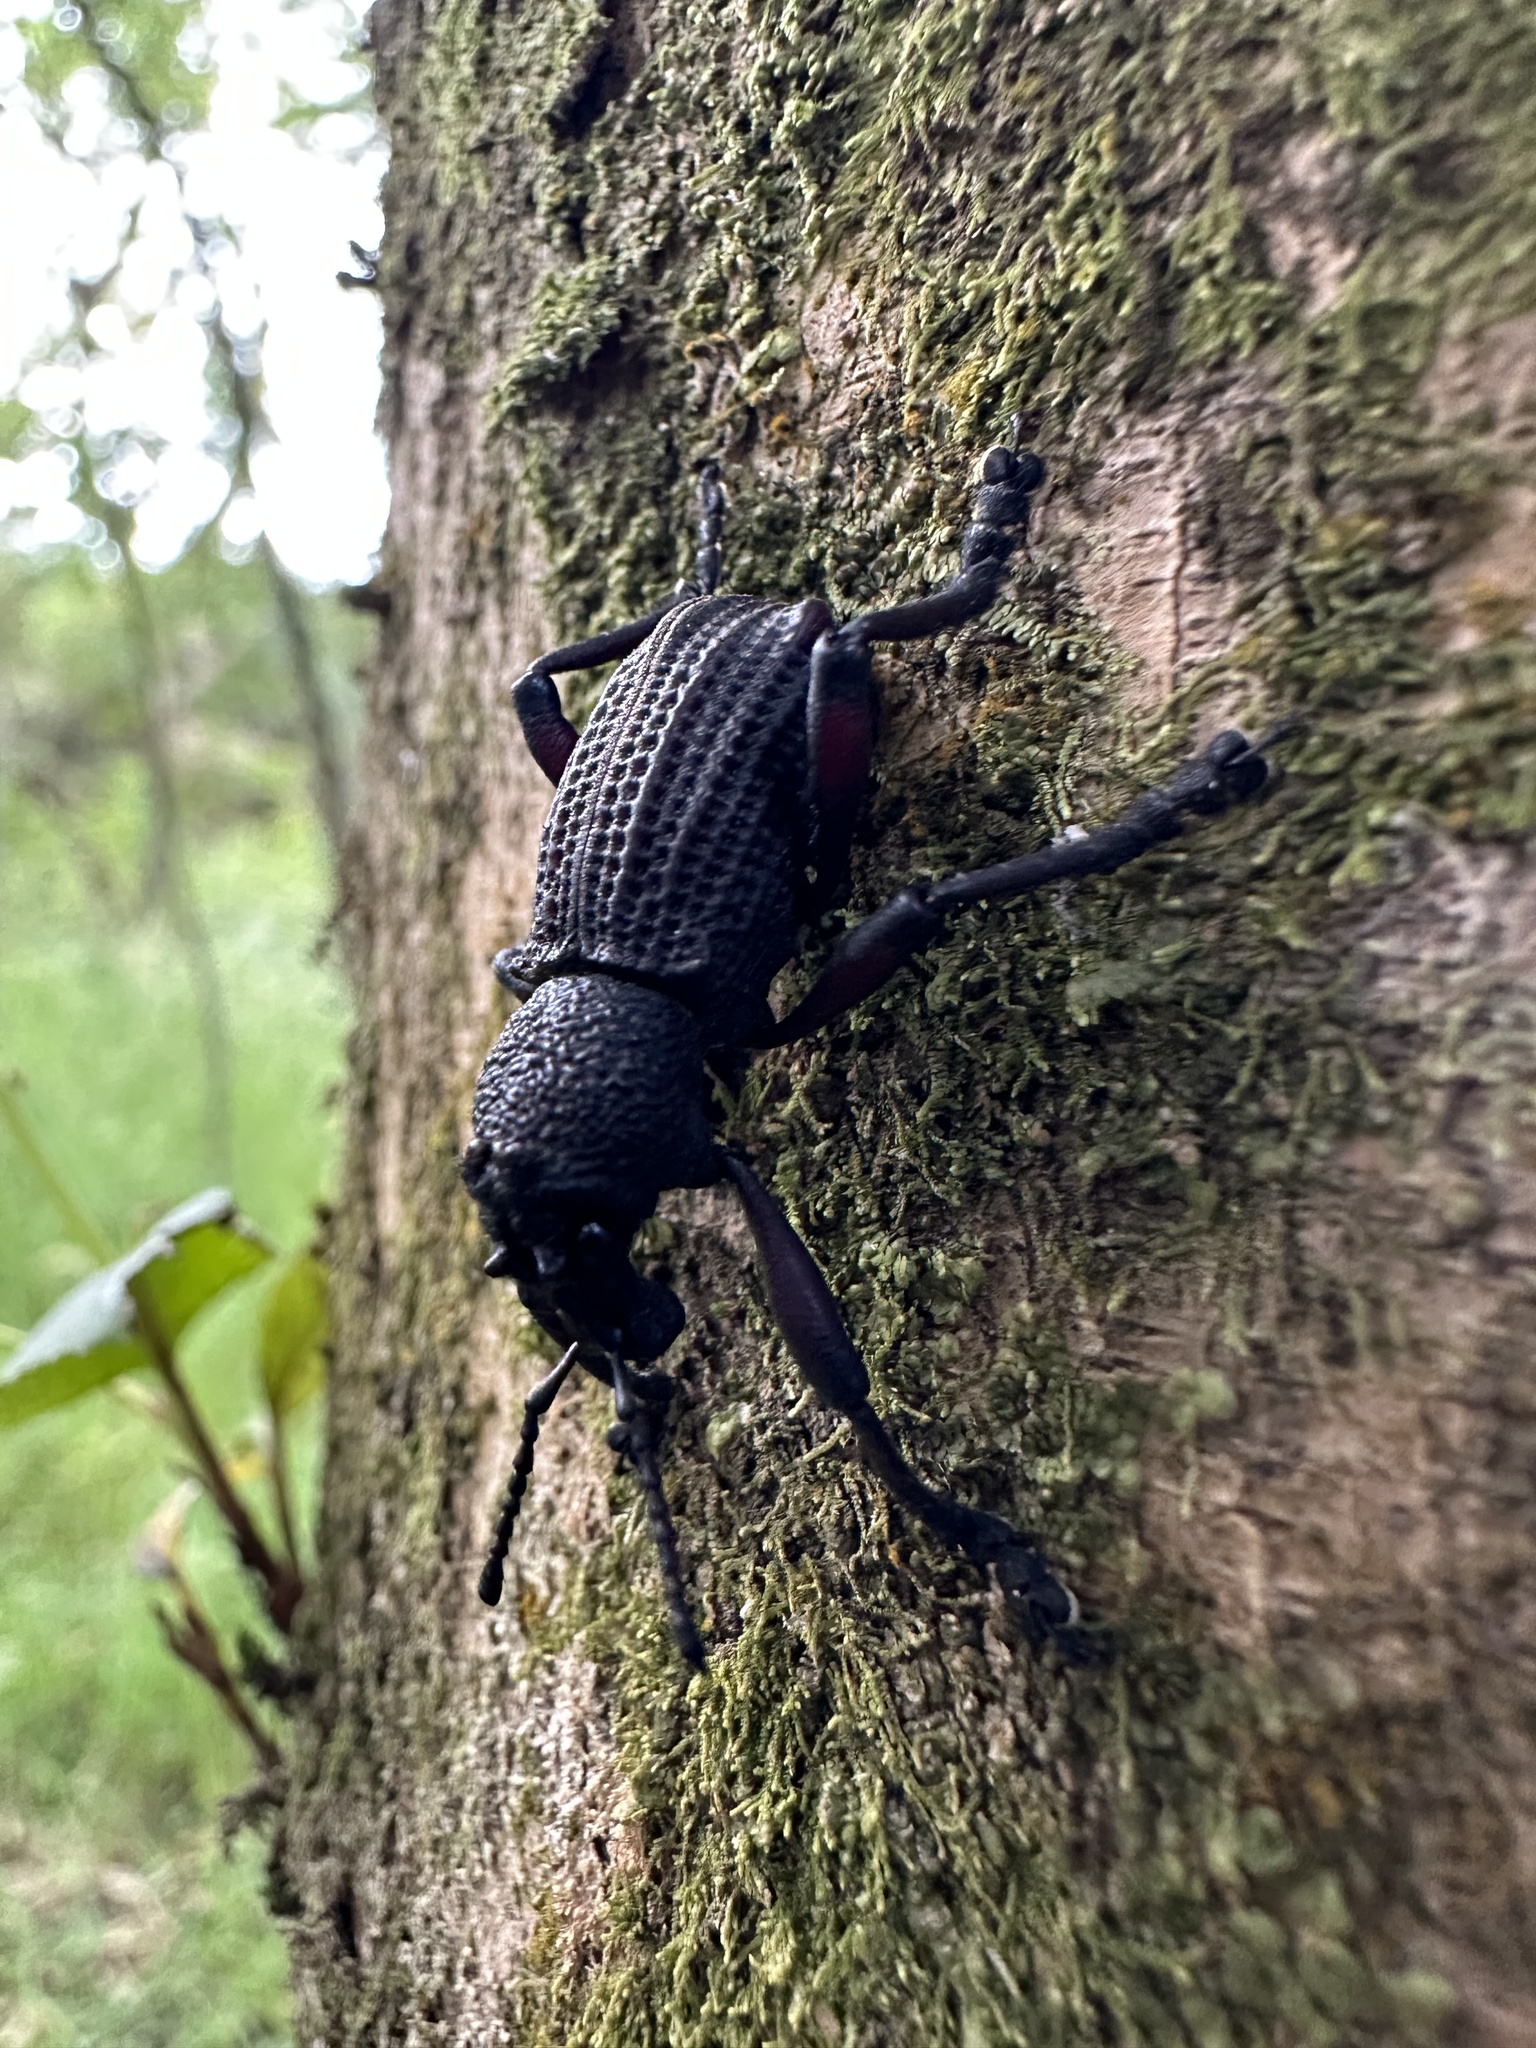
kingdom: Animalia
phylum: Arthropoda
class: Insecta
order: Coleoptera
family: Curculionidae
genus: Aegorhinus
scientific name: Aegorhinus
